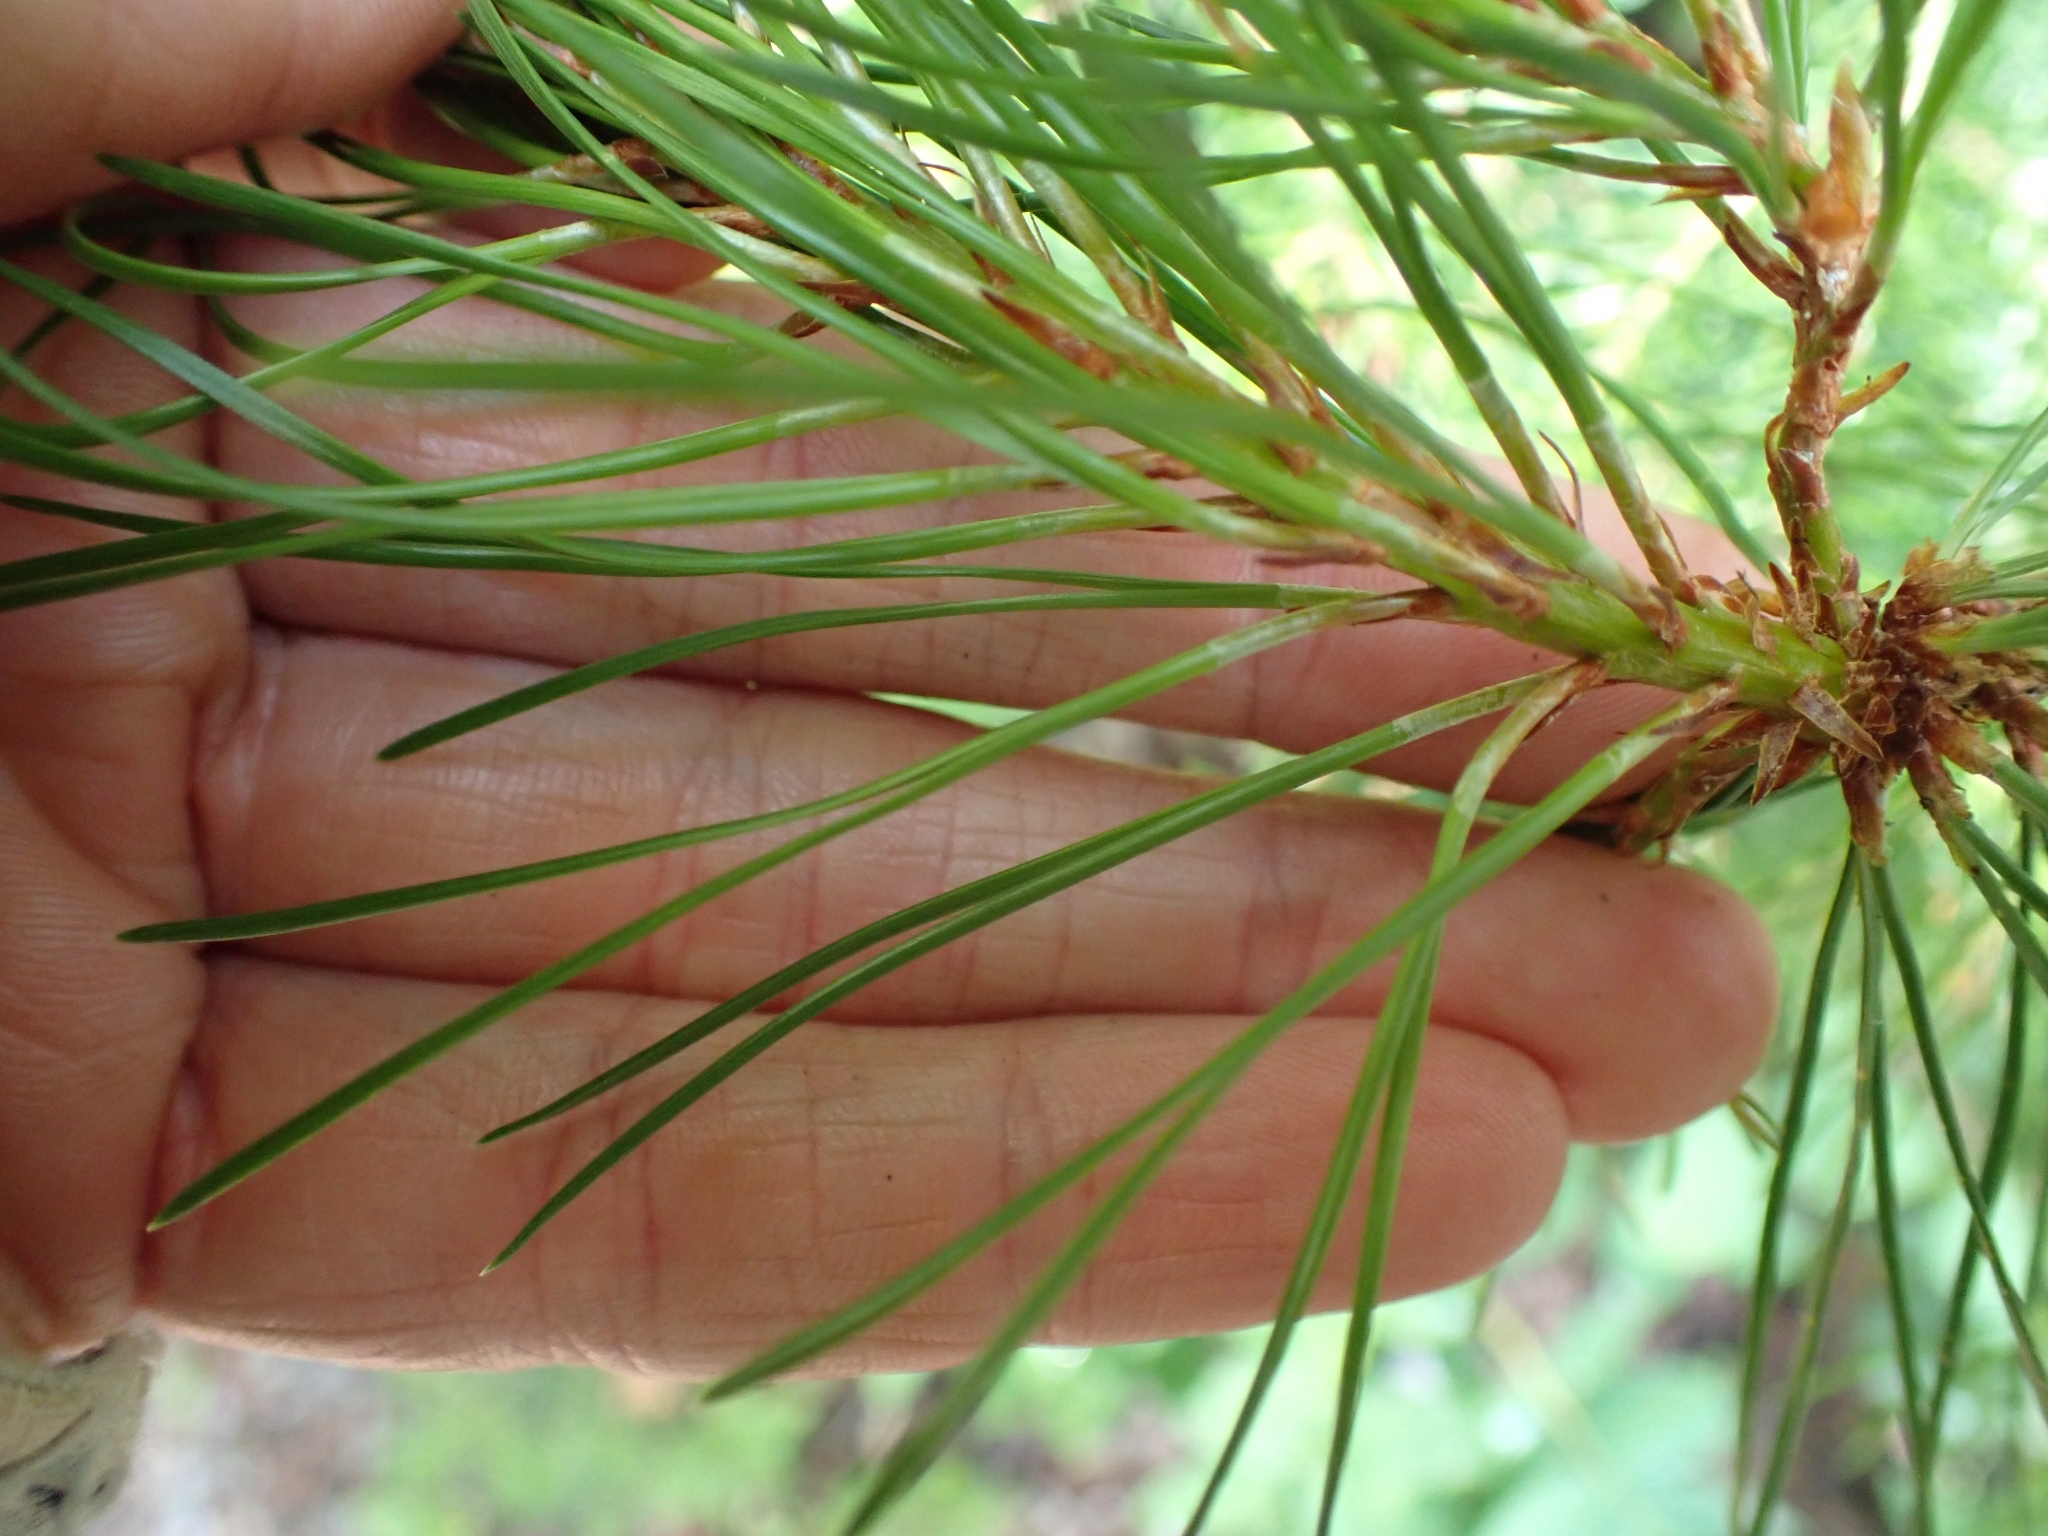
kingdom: Plantae
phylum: Tracheophyta
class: Pinopsida
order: Pinales
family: Pinaceae
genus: Pinus
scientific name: Pinus contorta
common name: Lodgepole pine
